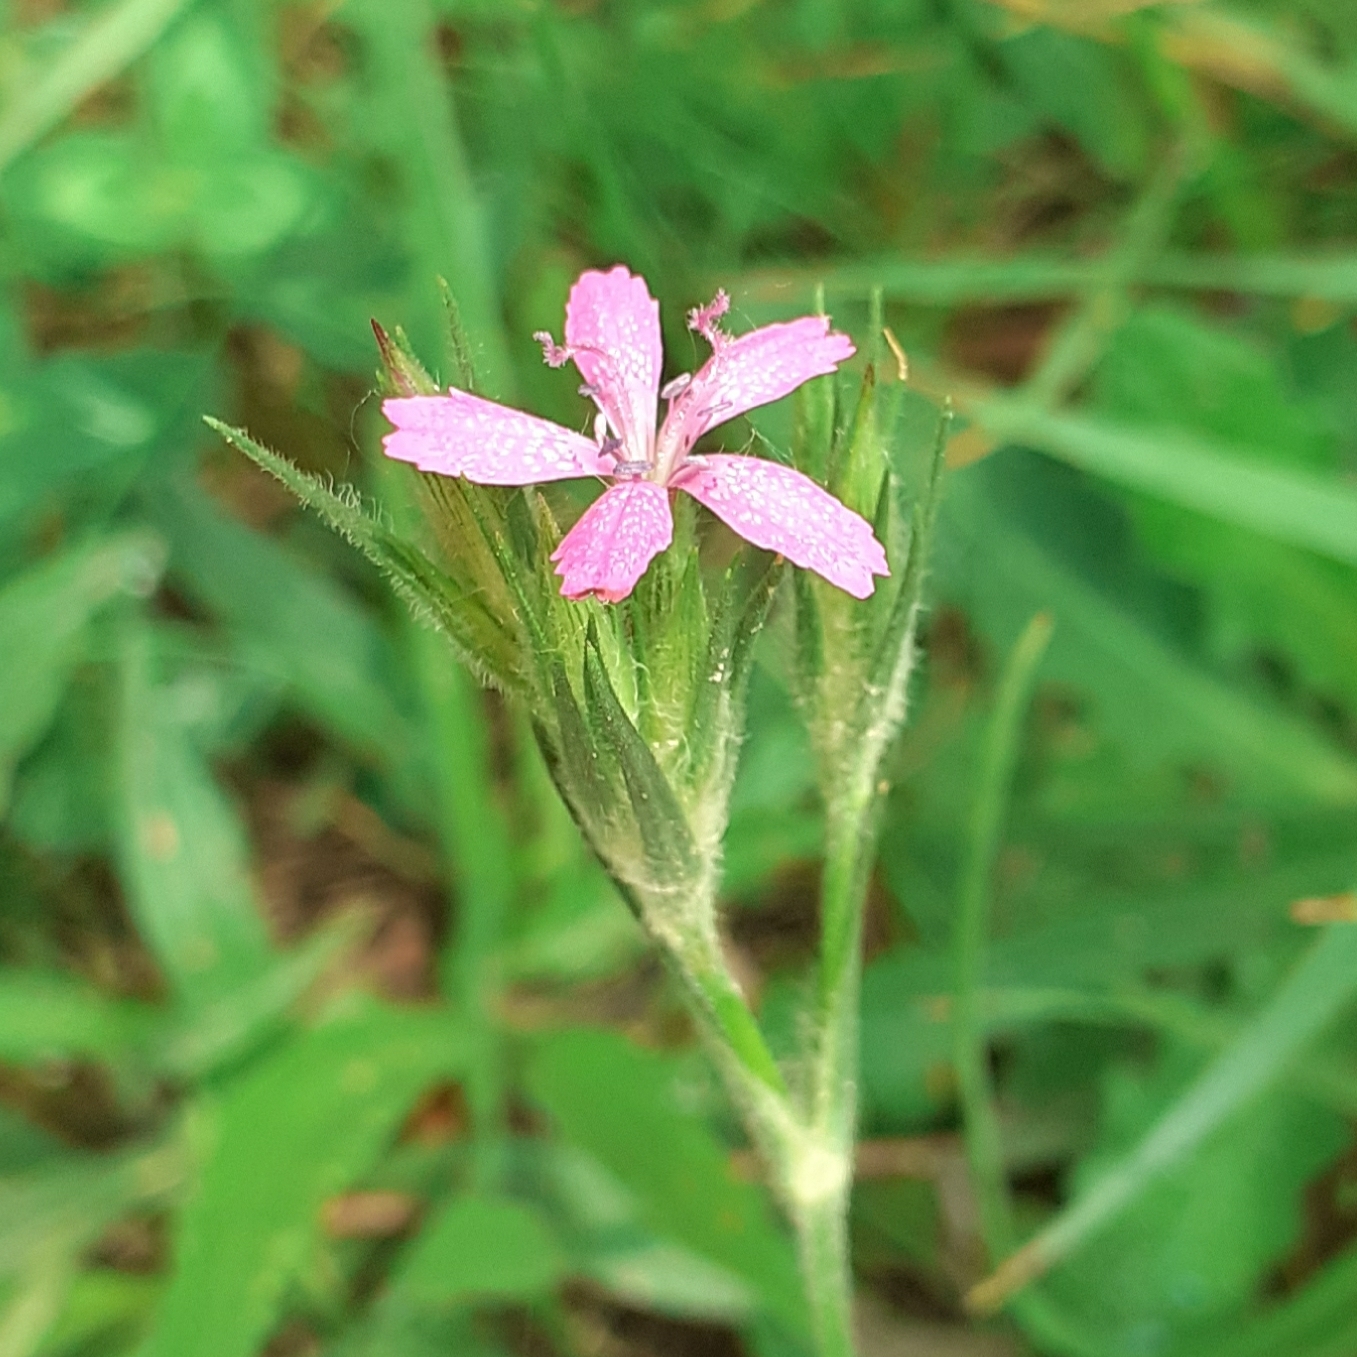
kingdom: Plantae
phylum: Tracheophyta
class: Magnoliopsida
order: Caryophyllales
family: Caryophyllaceae
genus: Dianthus
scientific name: Dianthus armeria
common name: Deptford pink
